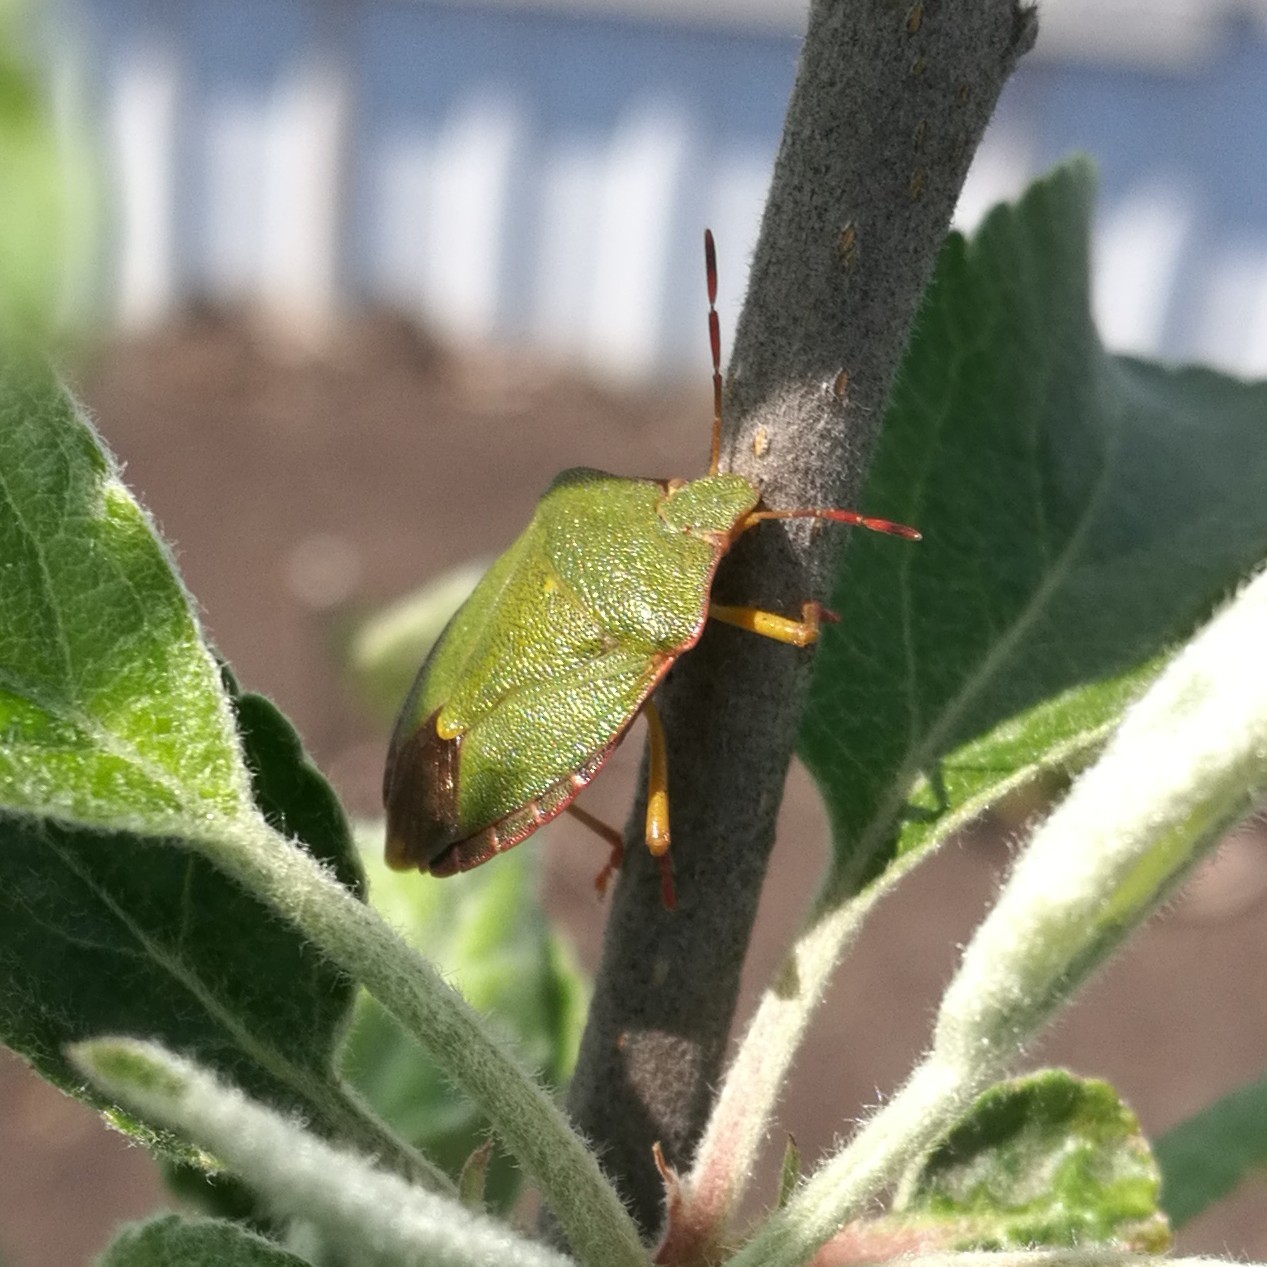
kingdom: Animalia
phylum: Arthropoda
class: Insecta
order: Hemiptera
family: Pentatomidae
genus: Palomena
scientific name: Palomena prasina
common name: Green shieldbug
